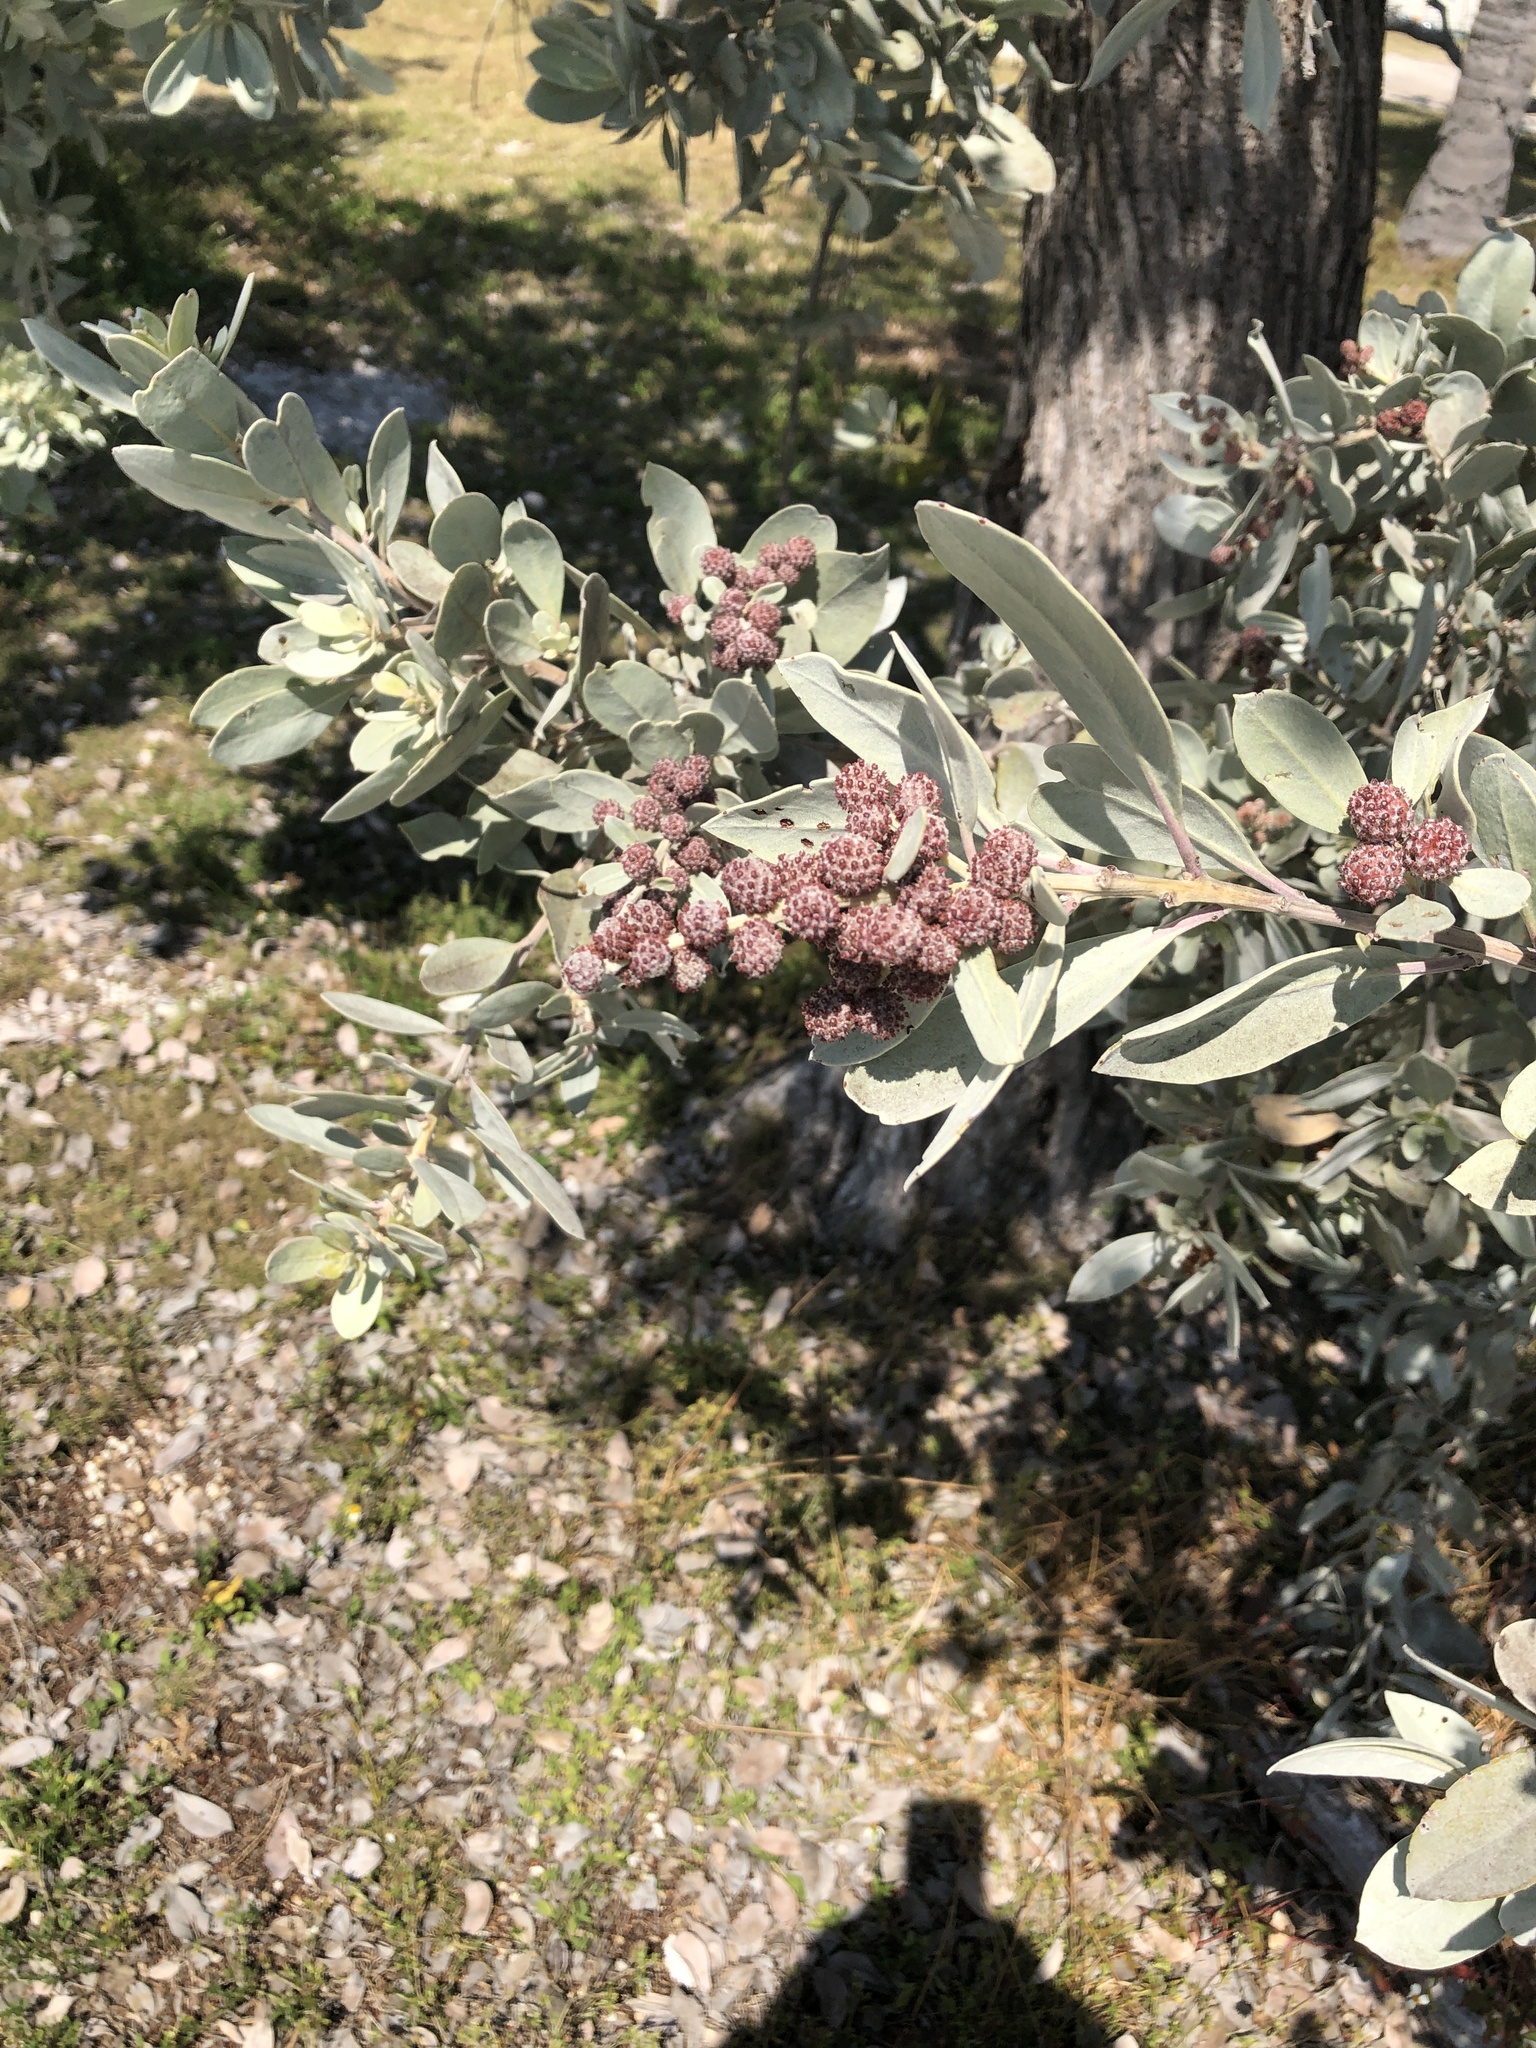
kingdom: Plantae
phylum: Tracheophyta
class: Magnoliopsida
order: Myrtales
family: Combretaceae
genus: Conocarpus
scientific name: Conocarpus erectus
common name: Button mangrove
